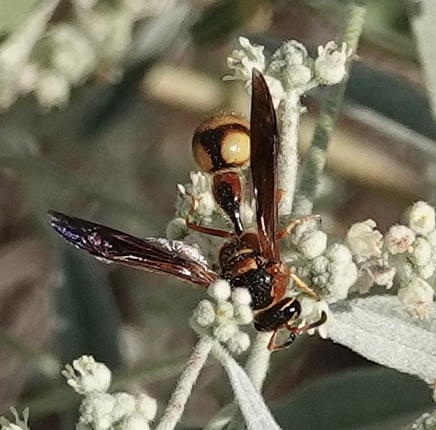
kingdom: Animalia
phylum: Arthropoda
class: Insecta
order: Hymenoptera
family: Vespidae
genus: Eumenes
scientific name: Eumenes bollii
